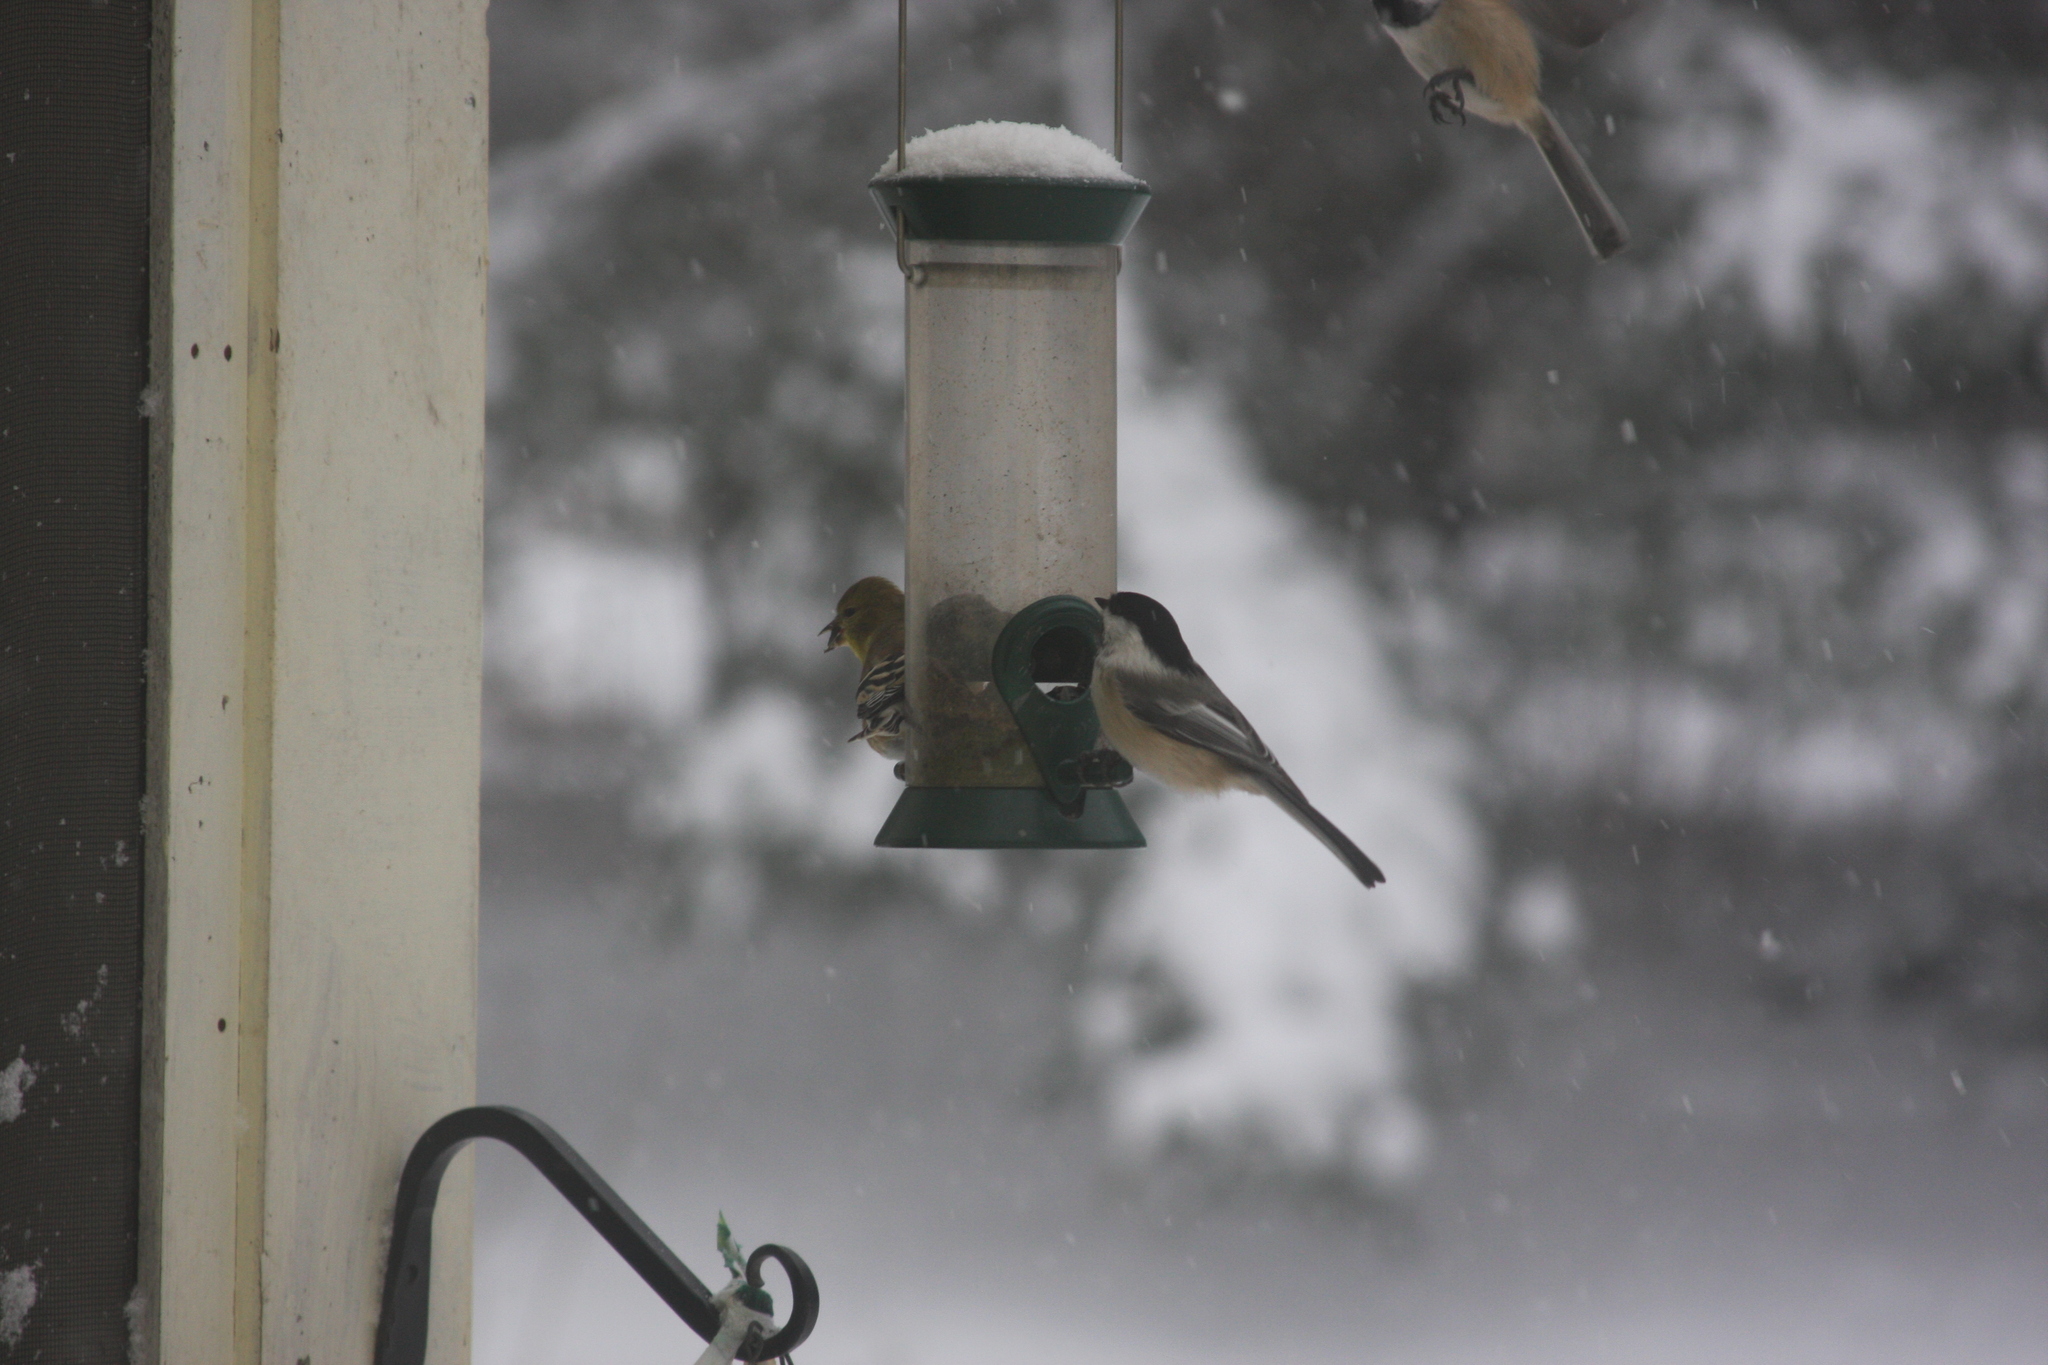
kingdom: Animalia
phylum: Chordata
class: Aves
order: Passeriformes
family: Paridae
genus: Poecile
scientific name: Poecile atricapillus
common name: Black-capped chickadee
